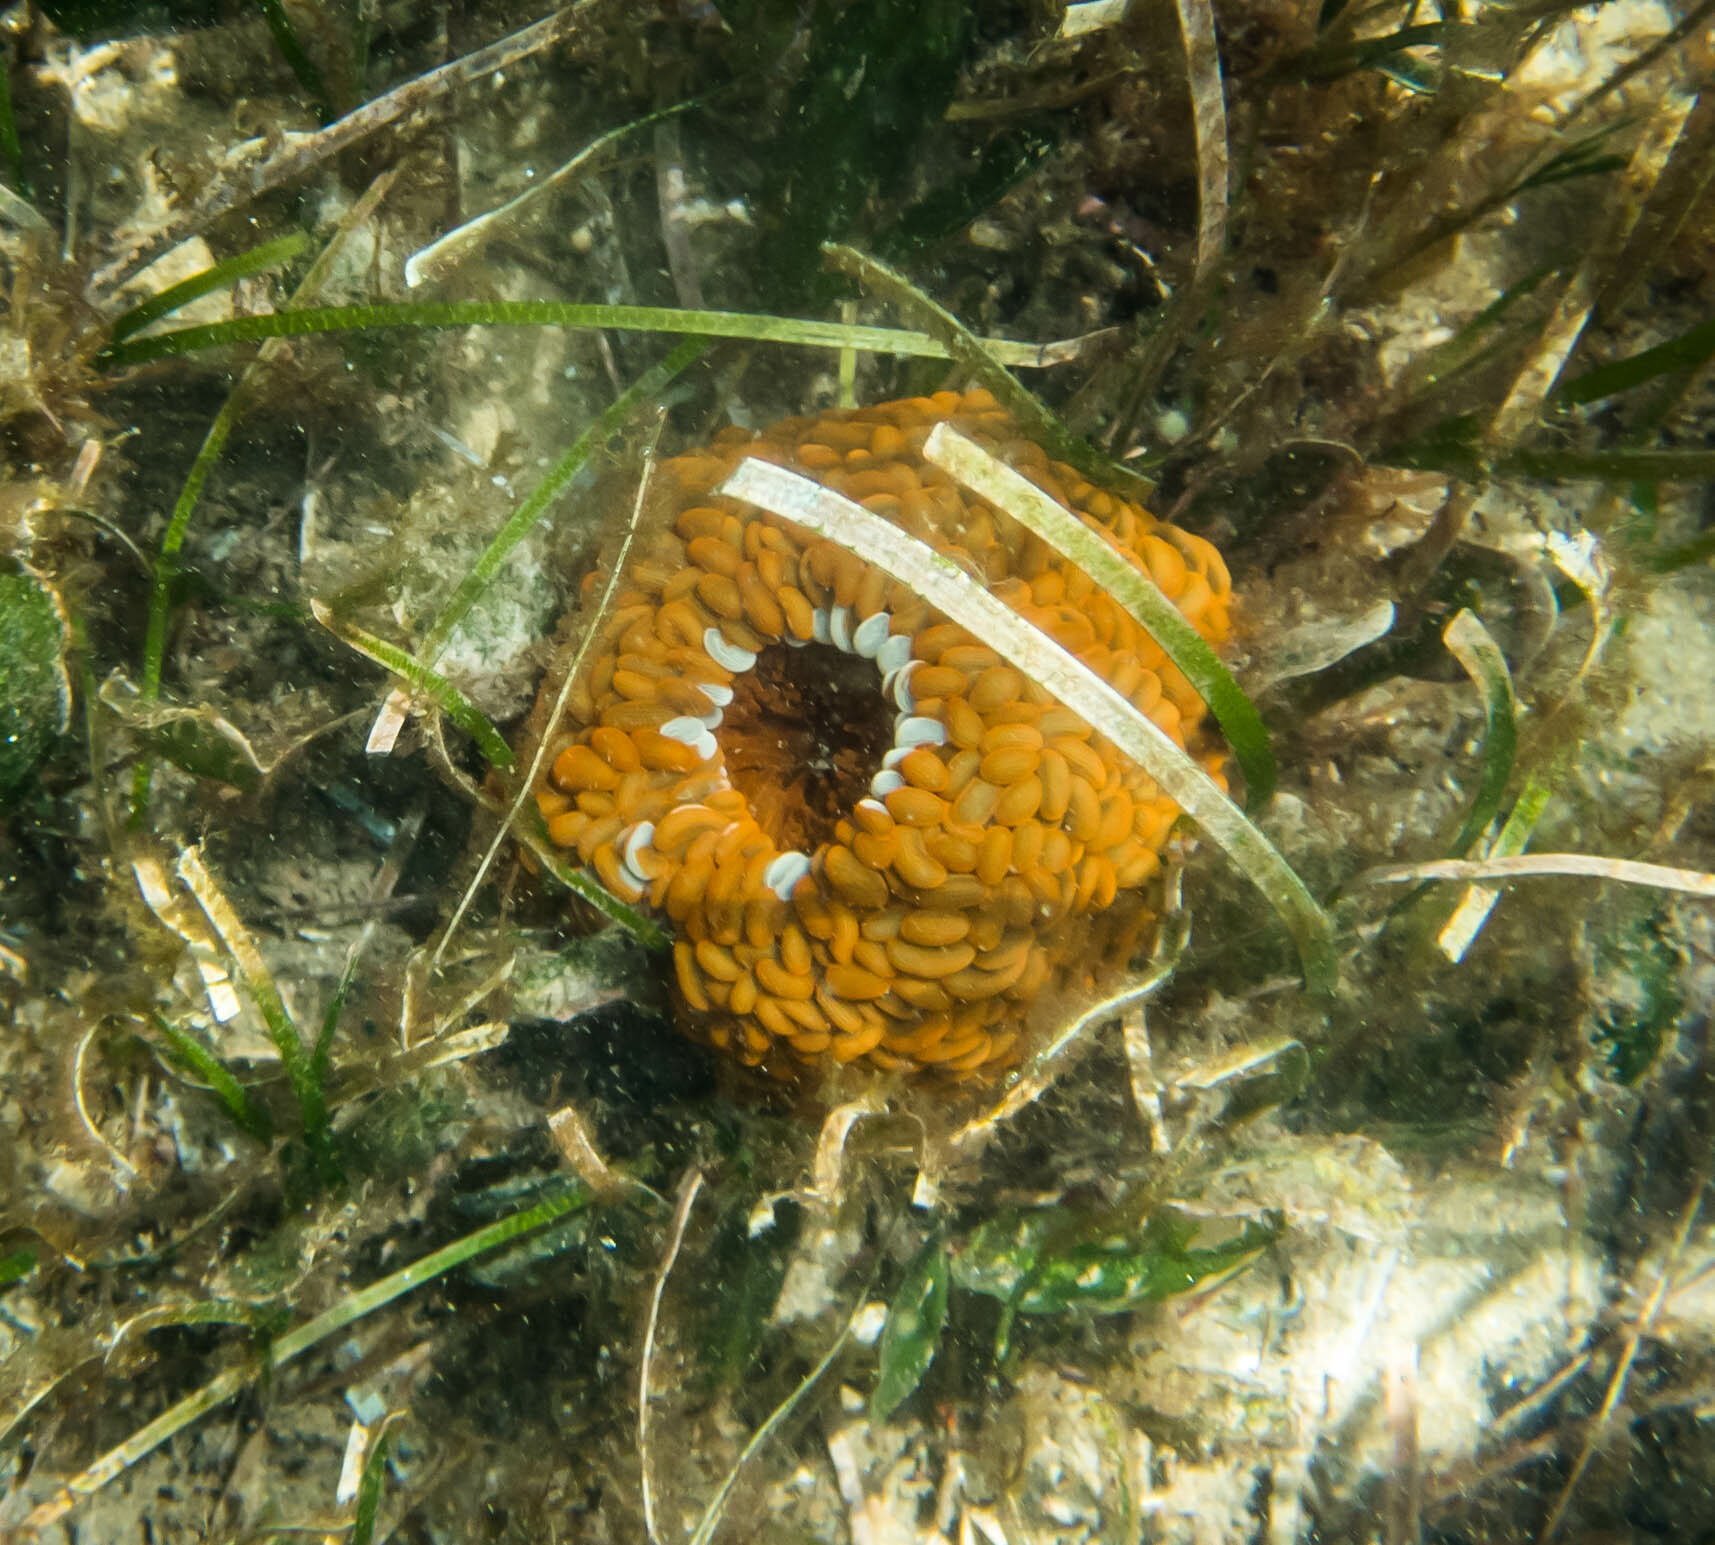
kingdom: Animalia
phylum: Cnidaria
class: Anthozoa
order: Actiniaria
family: Actiniidae
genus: Phlyctenactis
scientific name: Phlyctenactis tuberculosa
